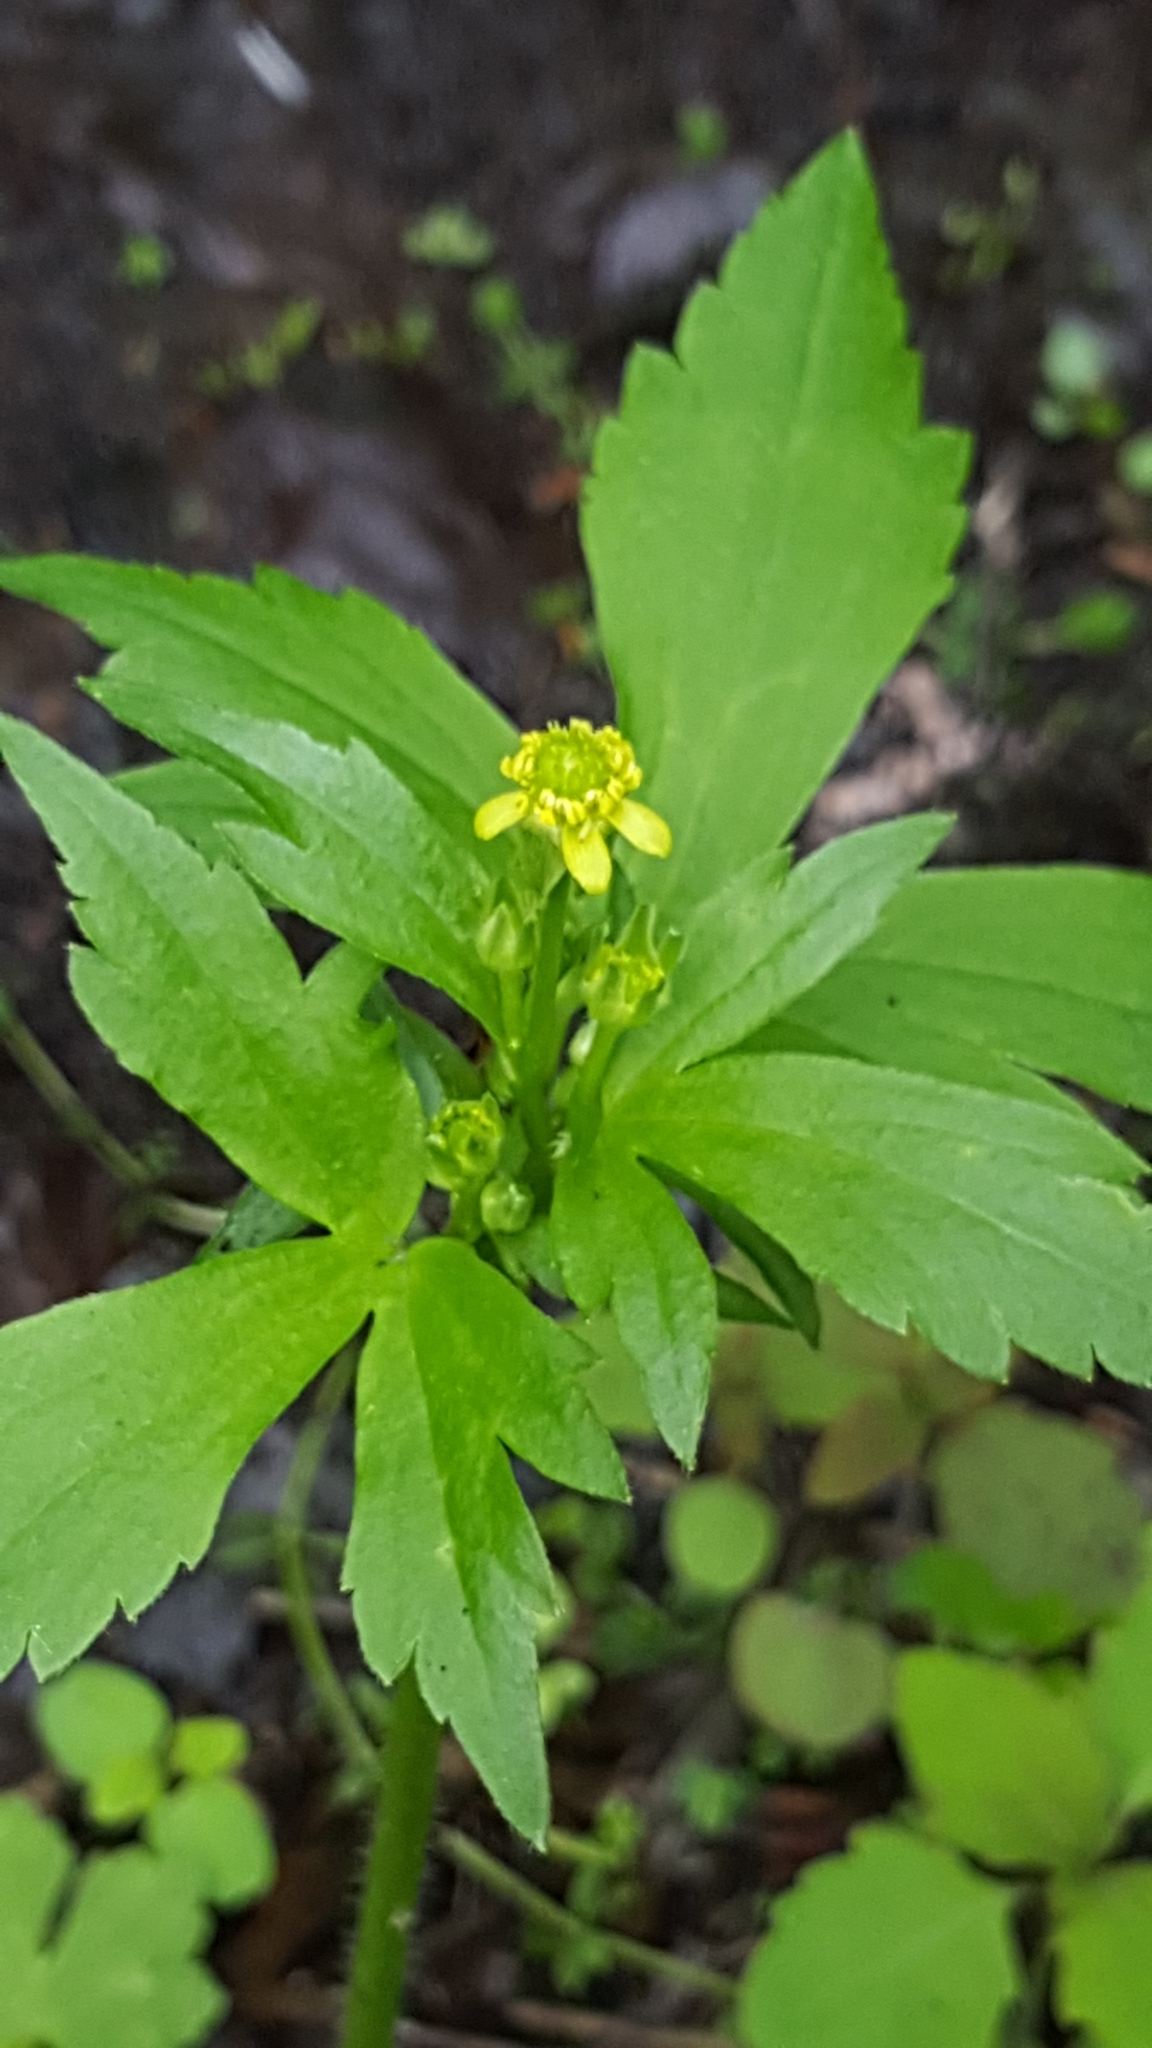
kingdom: Plantae
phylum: Tracheophyta
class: Magnoliopsida
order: Ranunculales
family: Ranunculaceae
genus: Ranunculus
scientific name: Ranunculus recurvatus
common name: Blisterwort
